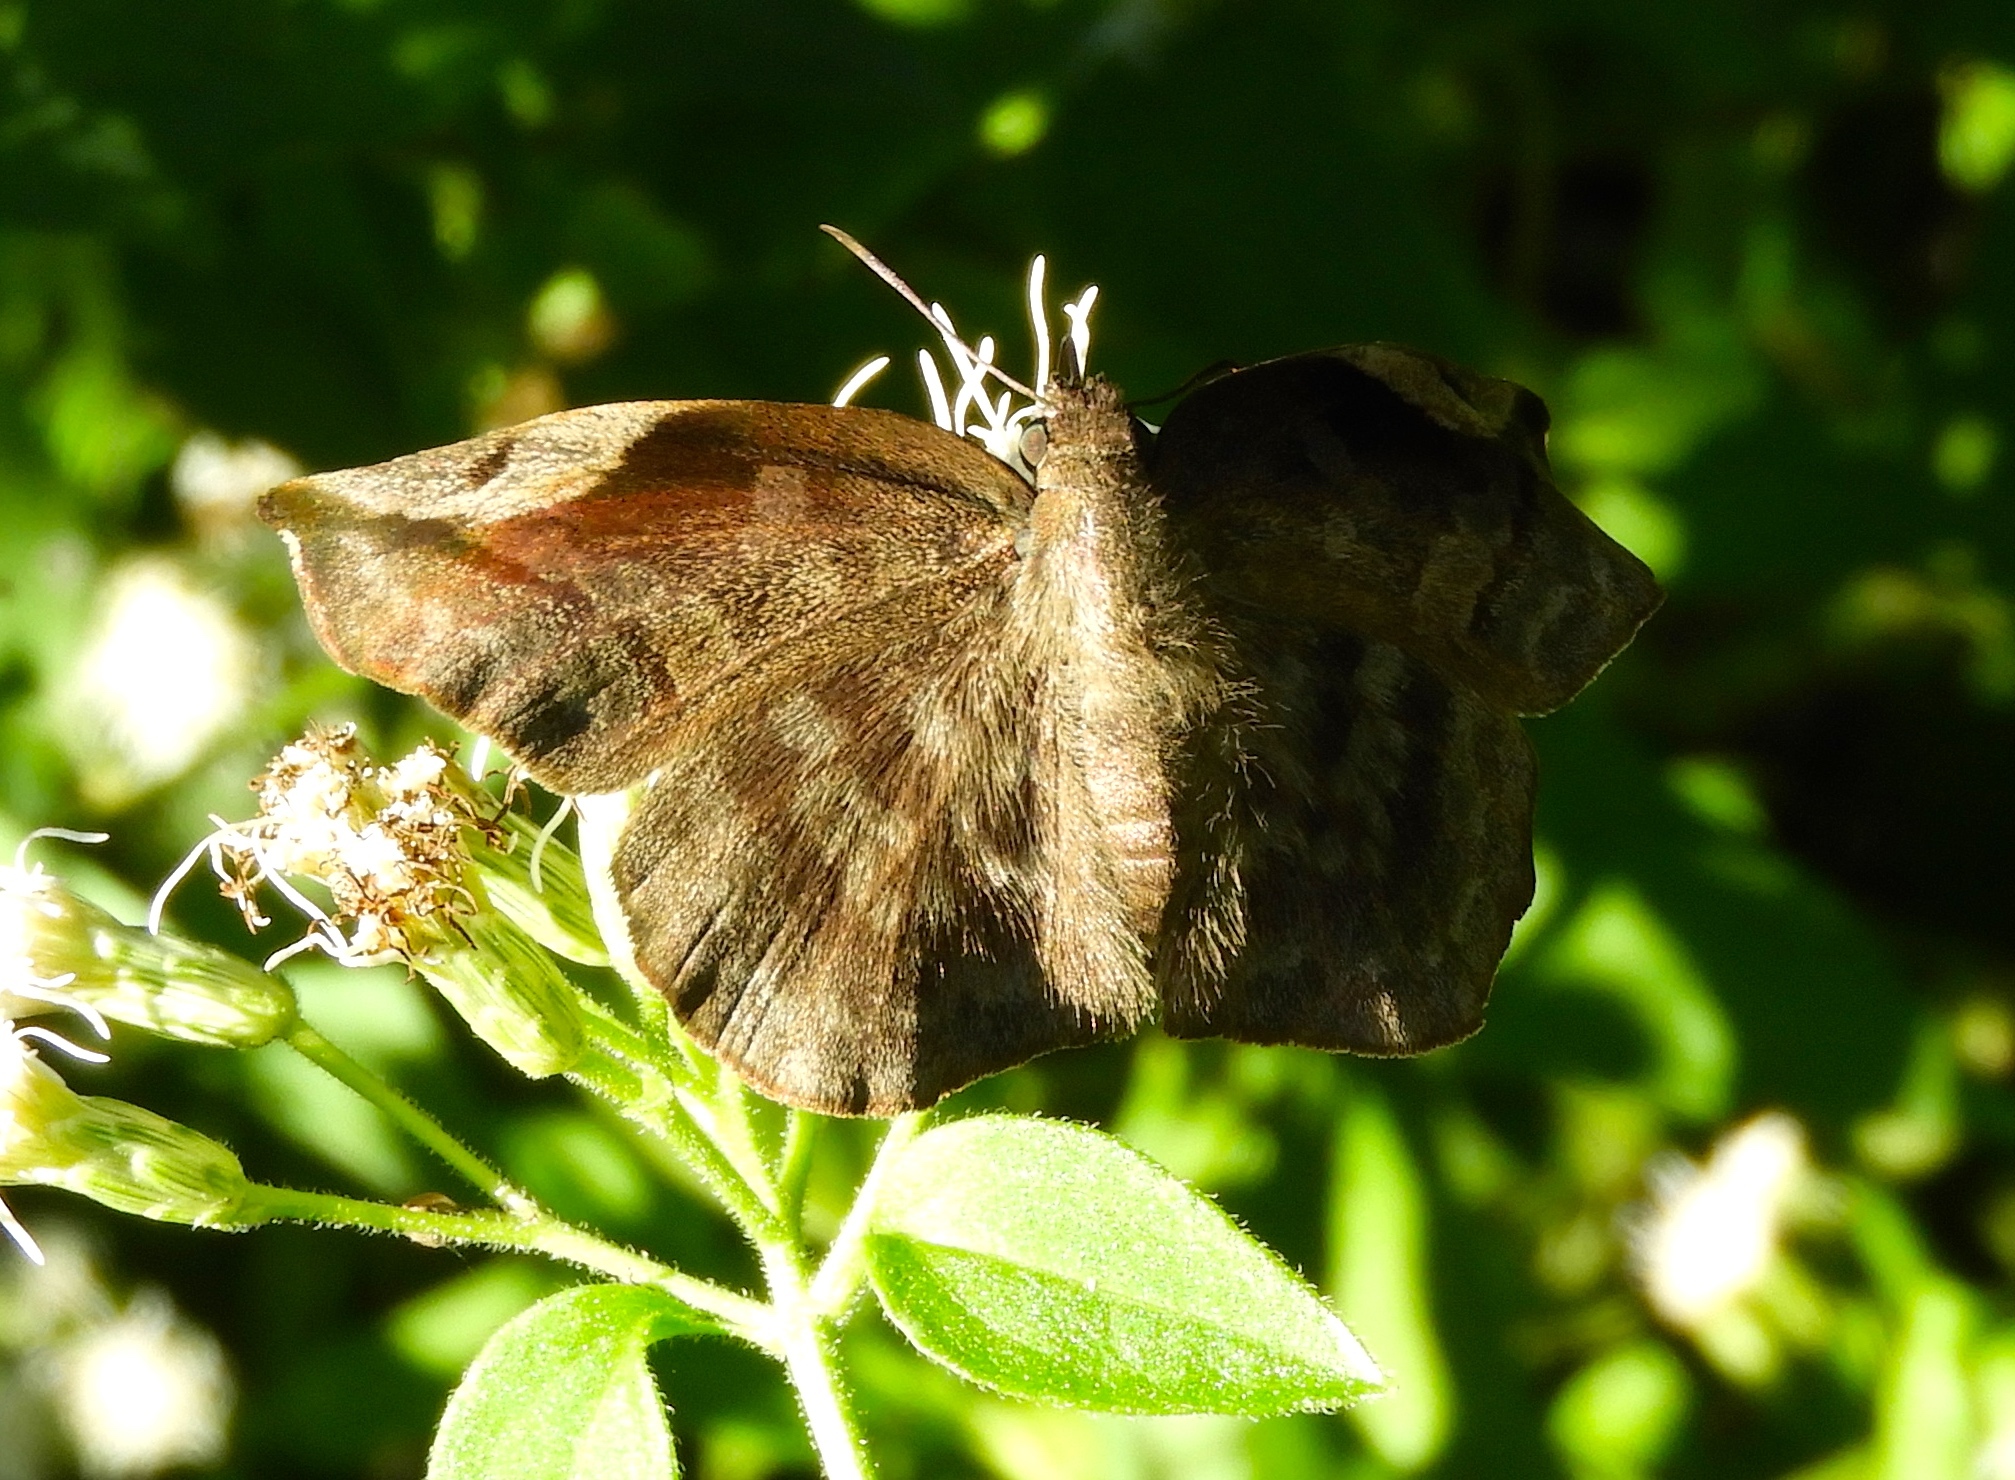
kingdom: Animalia
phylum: Arthropoda
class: Insecta
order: Lepidoptera
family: Hesperiidae
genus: Achlyodes
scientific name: Achlyodes thraso
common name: Sickle-winged skipper
